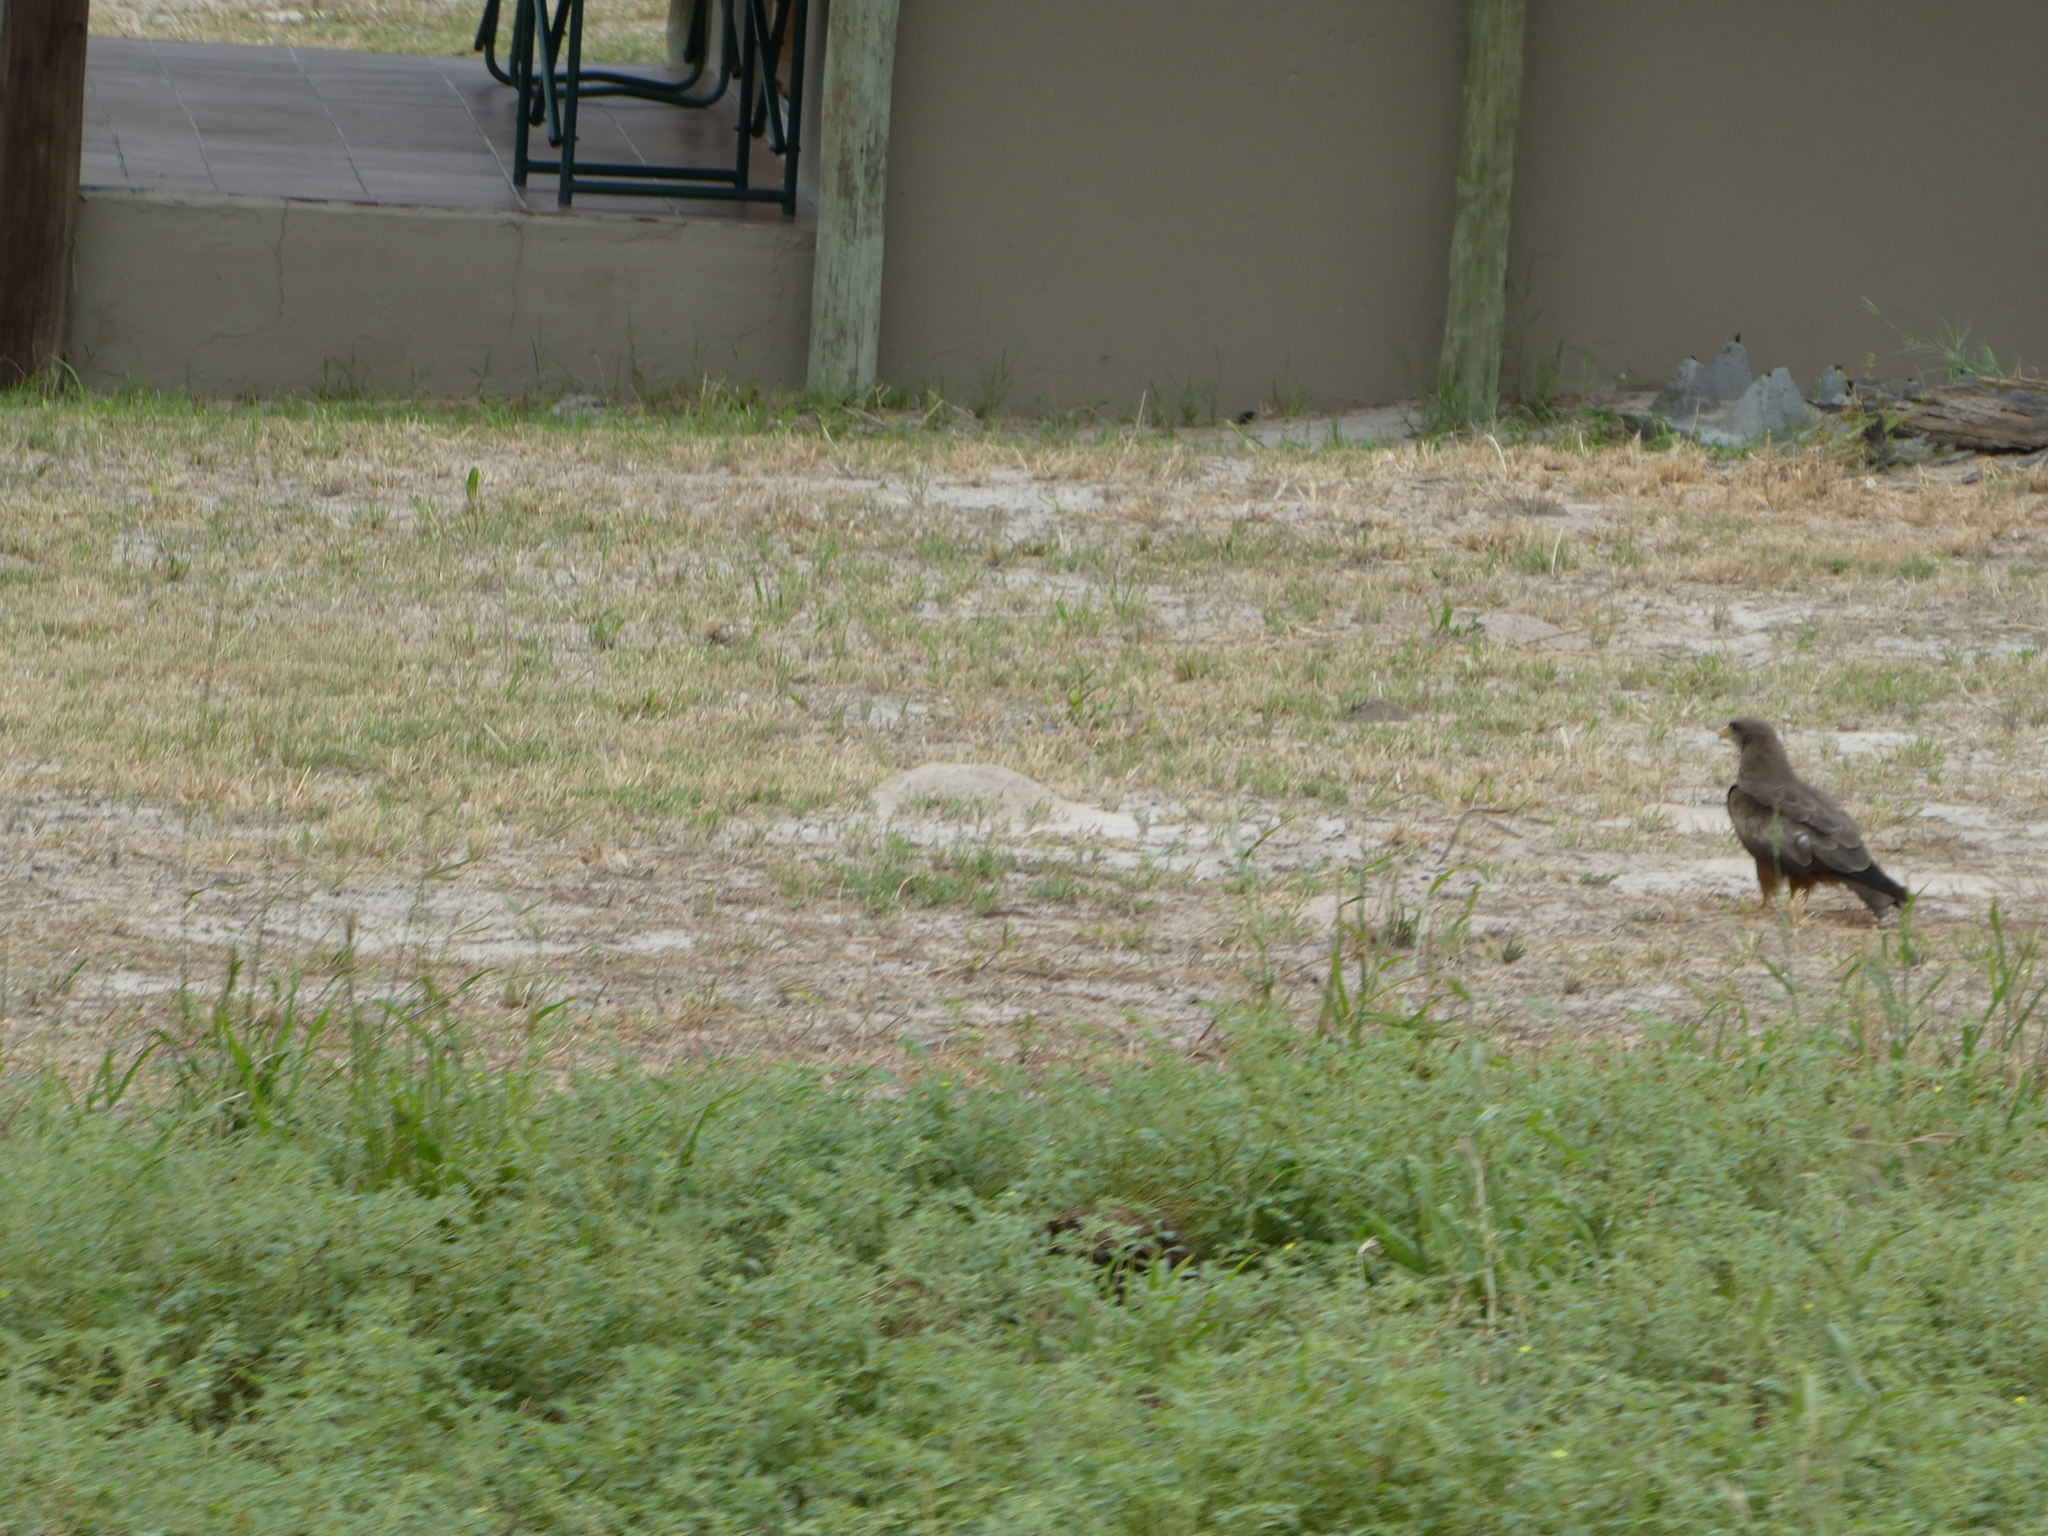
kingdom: Animalia
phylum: Chordata
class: Aves
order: Accipitriformes
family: Accipitridae
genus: Milvus
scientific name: Milvus migrans
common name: Black kite
